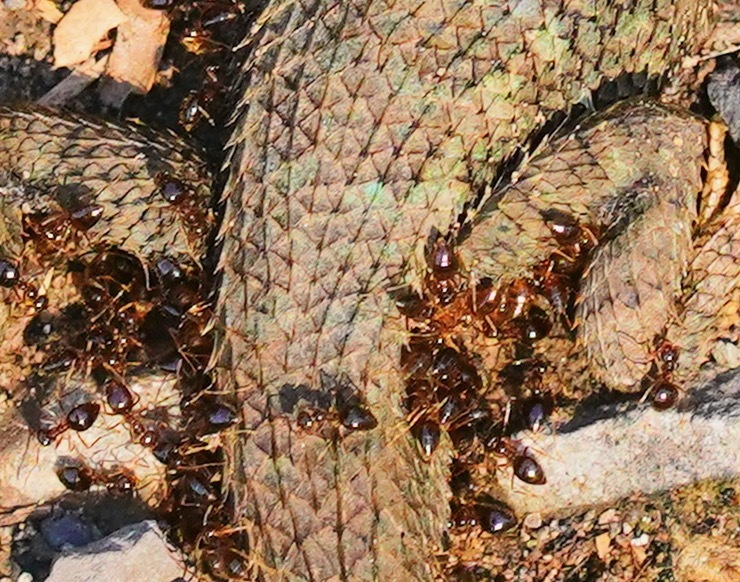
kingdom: Animalia
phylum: Arthropoda
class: Insecta
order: Hymenoptera
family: Formicidae
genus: Prenolepis
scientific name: Prenolepis imparis
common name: Small honey ant
